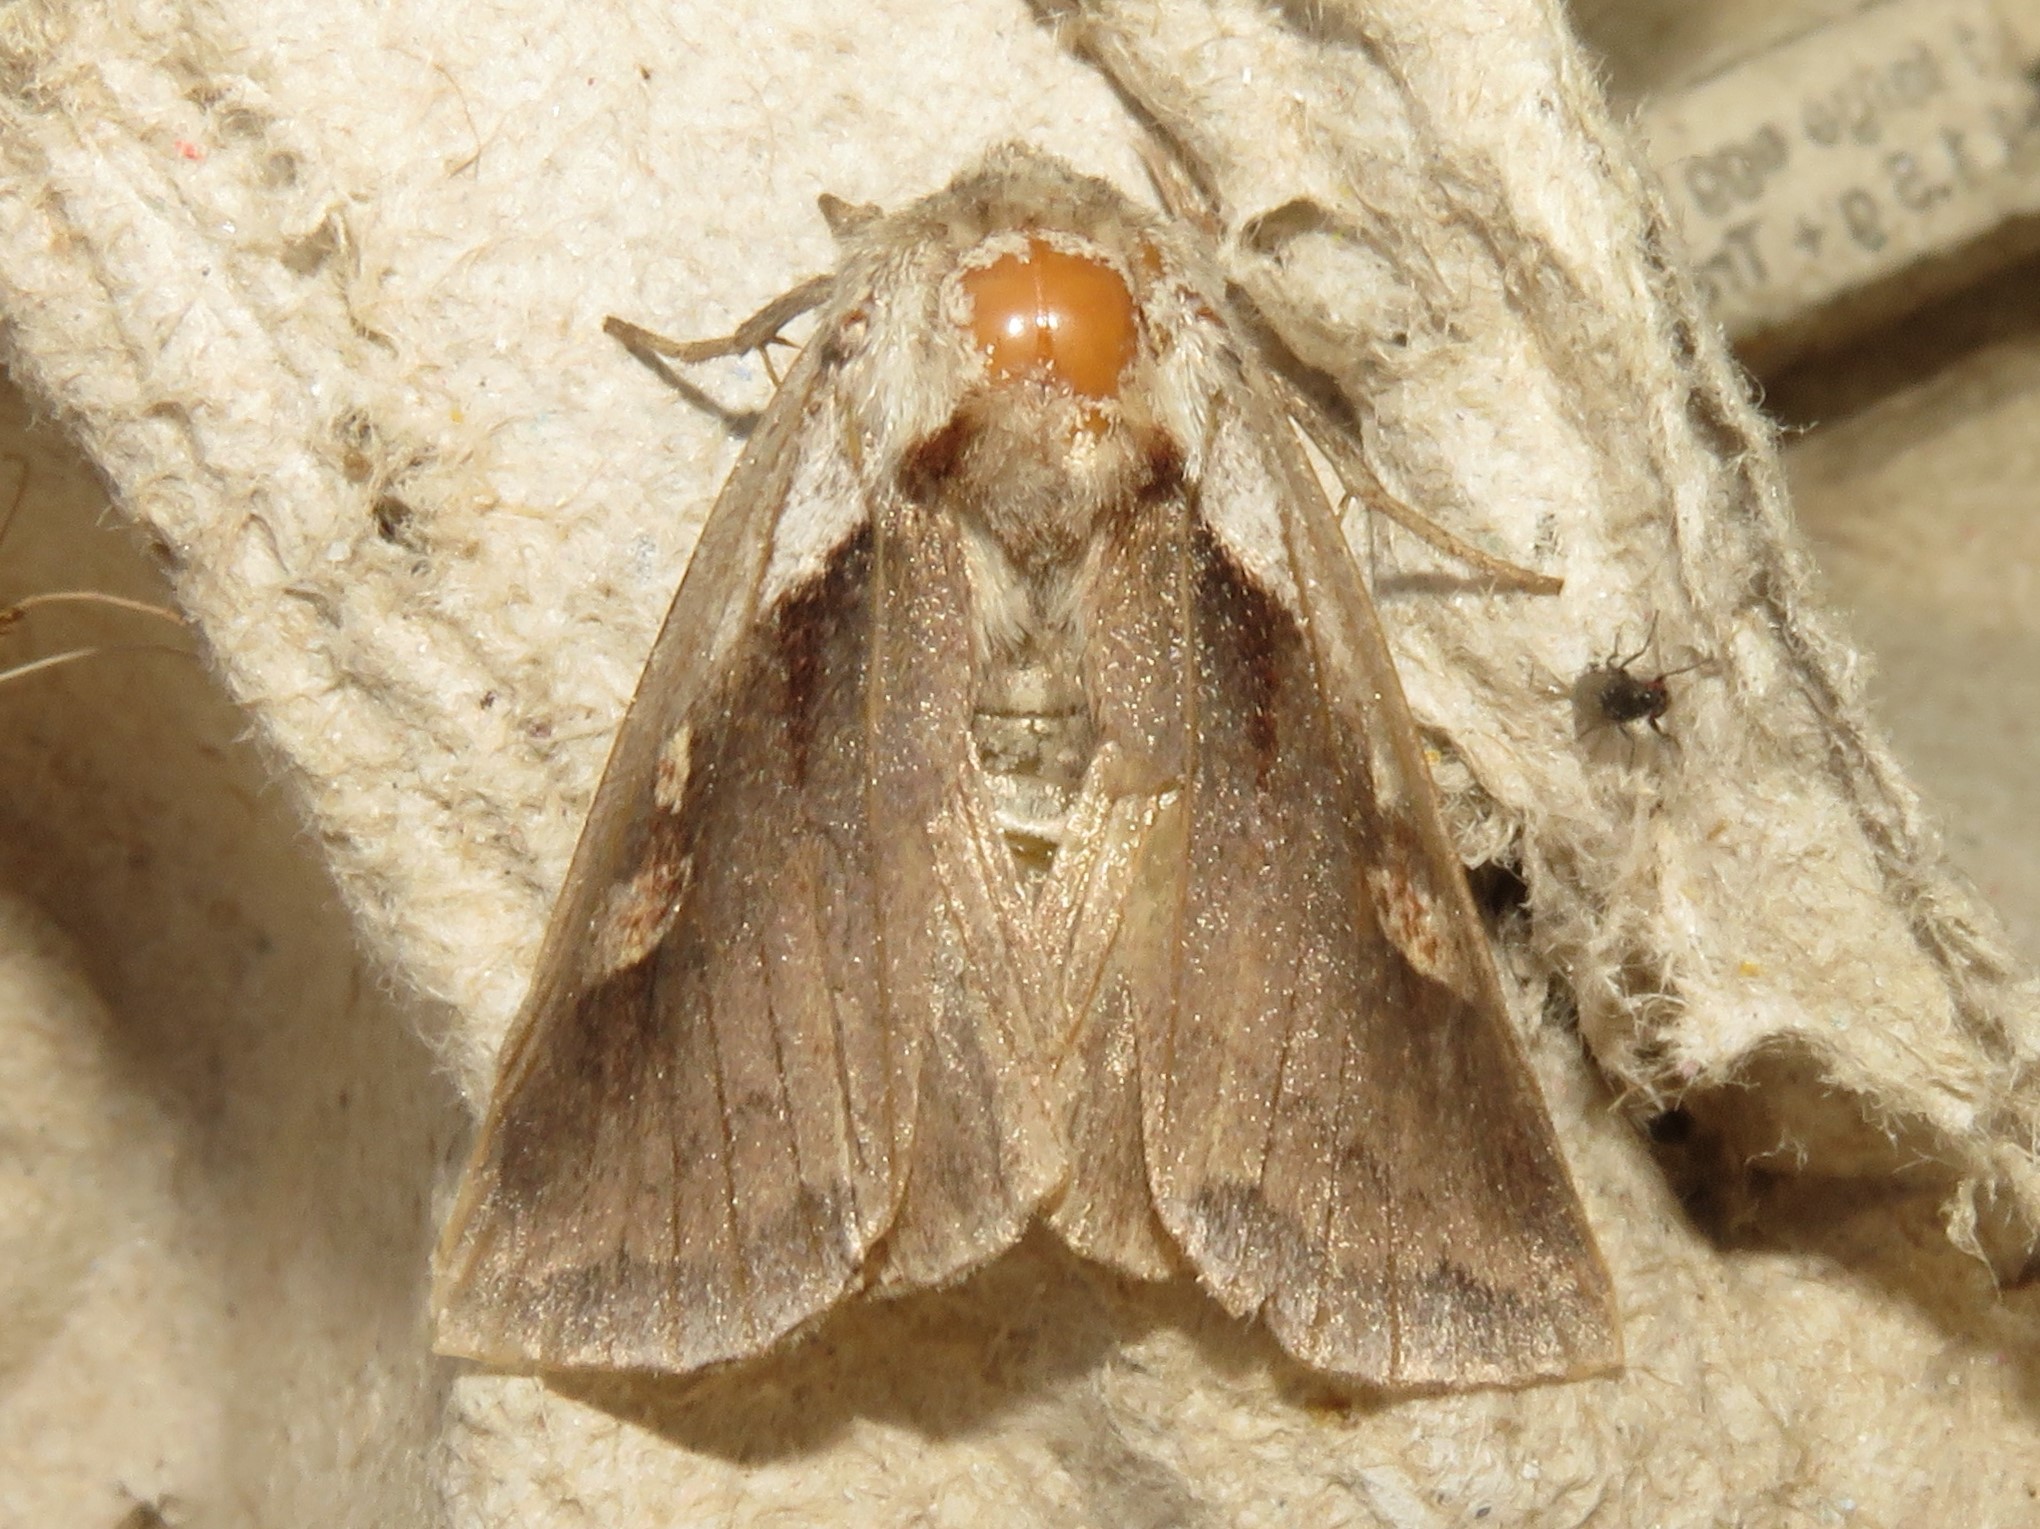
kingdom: Animalia
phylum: Arthropoda
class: Insecta
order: Lepidoptera
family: Noctuidae
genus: Bellura
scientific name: Bellura obliqua
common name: Cattail borer moth
